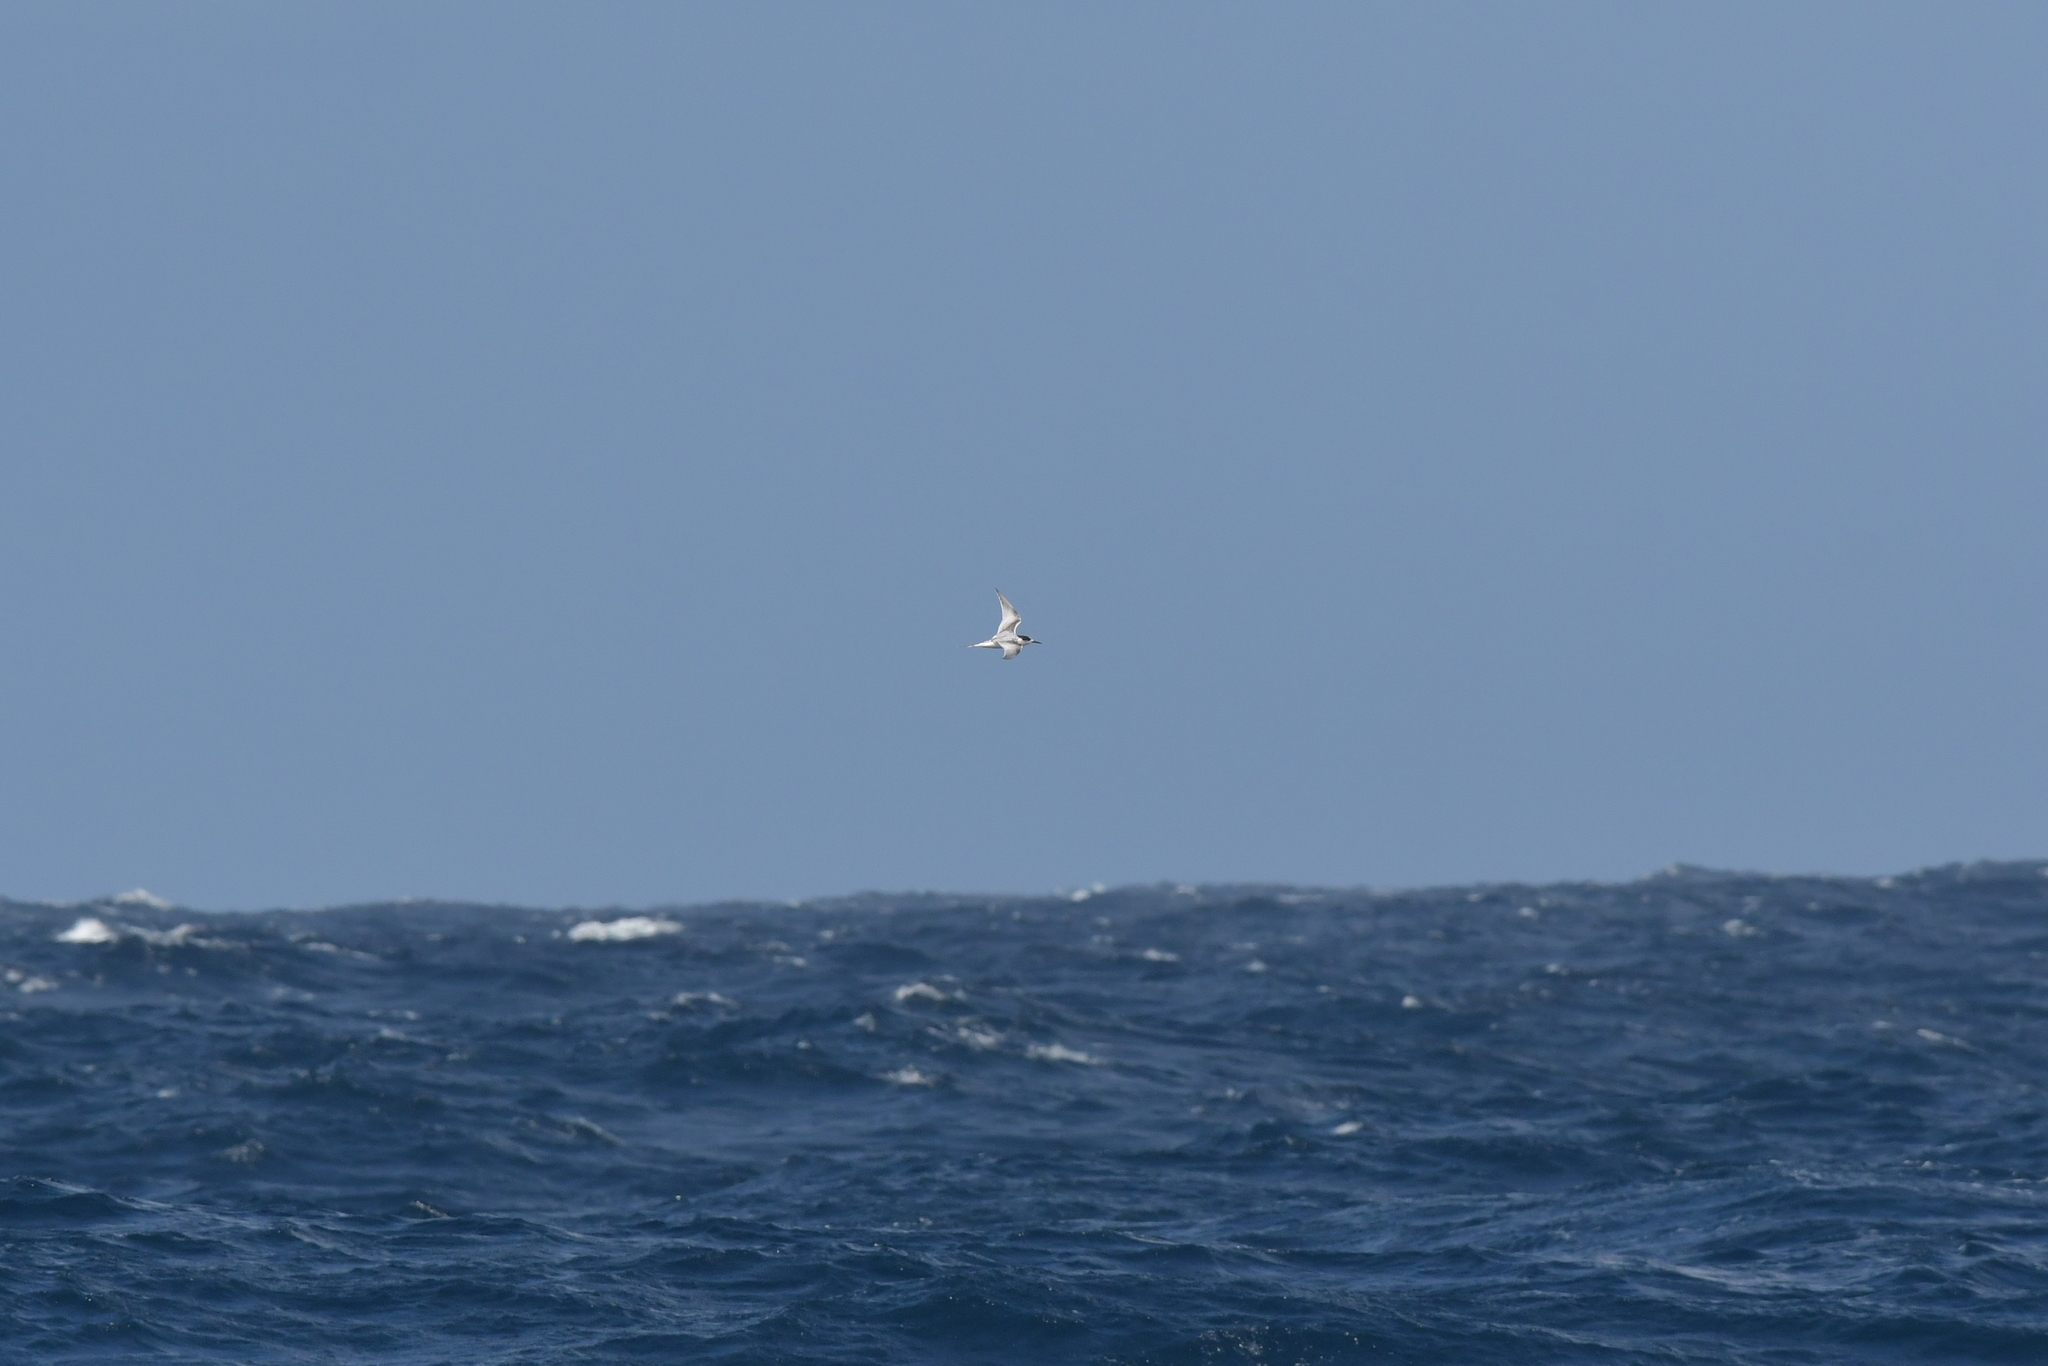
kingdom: Animalia
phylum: Chordata
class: Aves
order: Charadriiformes
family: Laridae
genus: Sterna
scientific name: Sterna striata
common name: White-fronted tern
